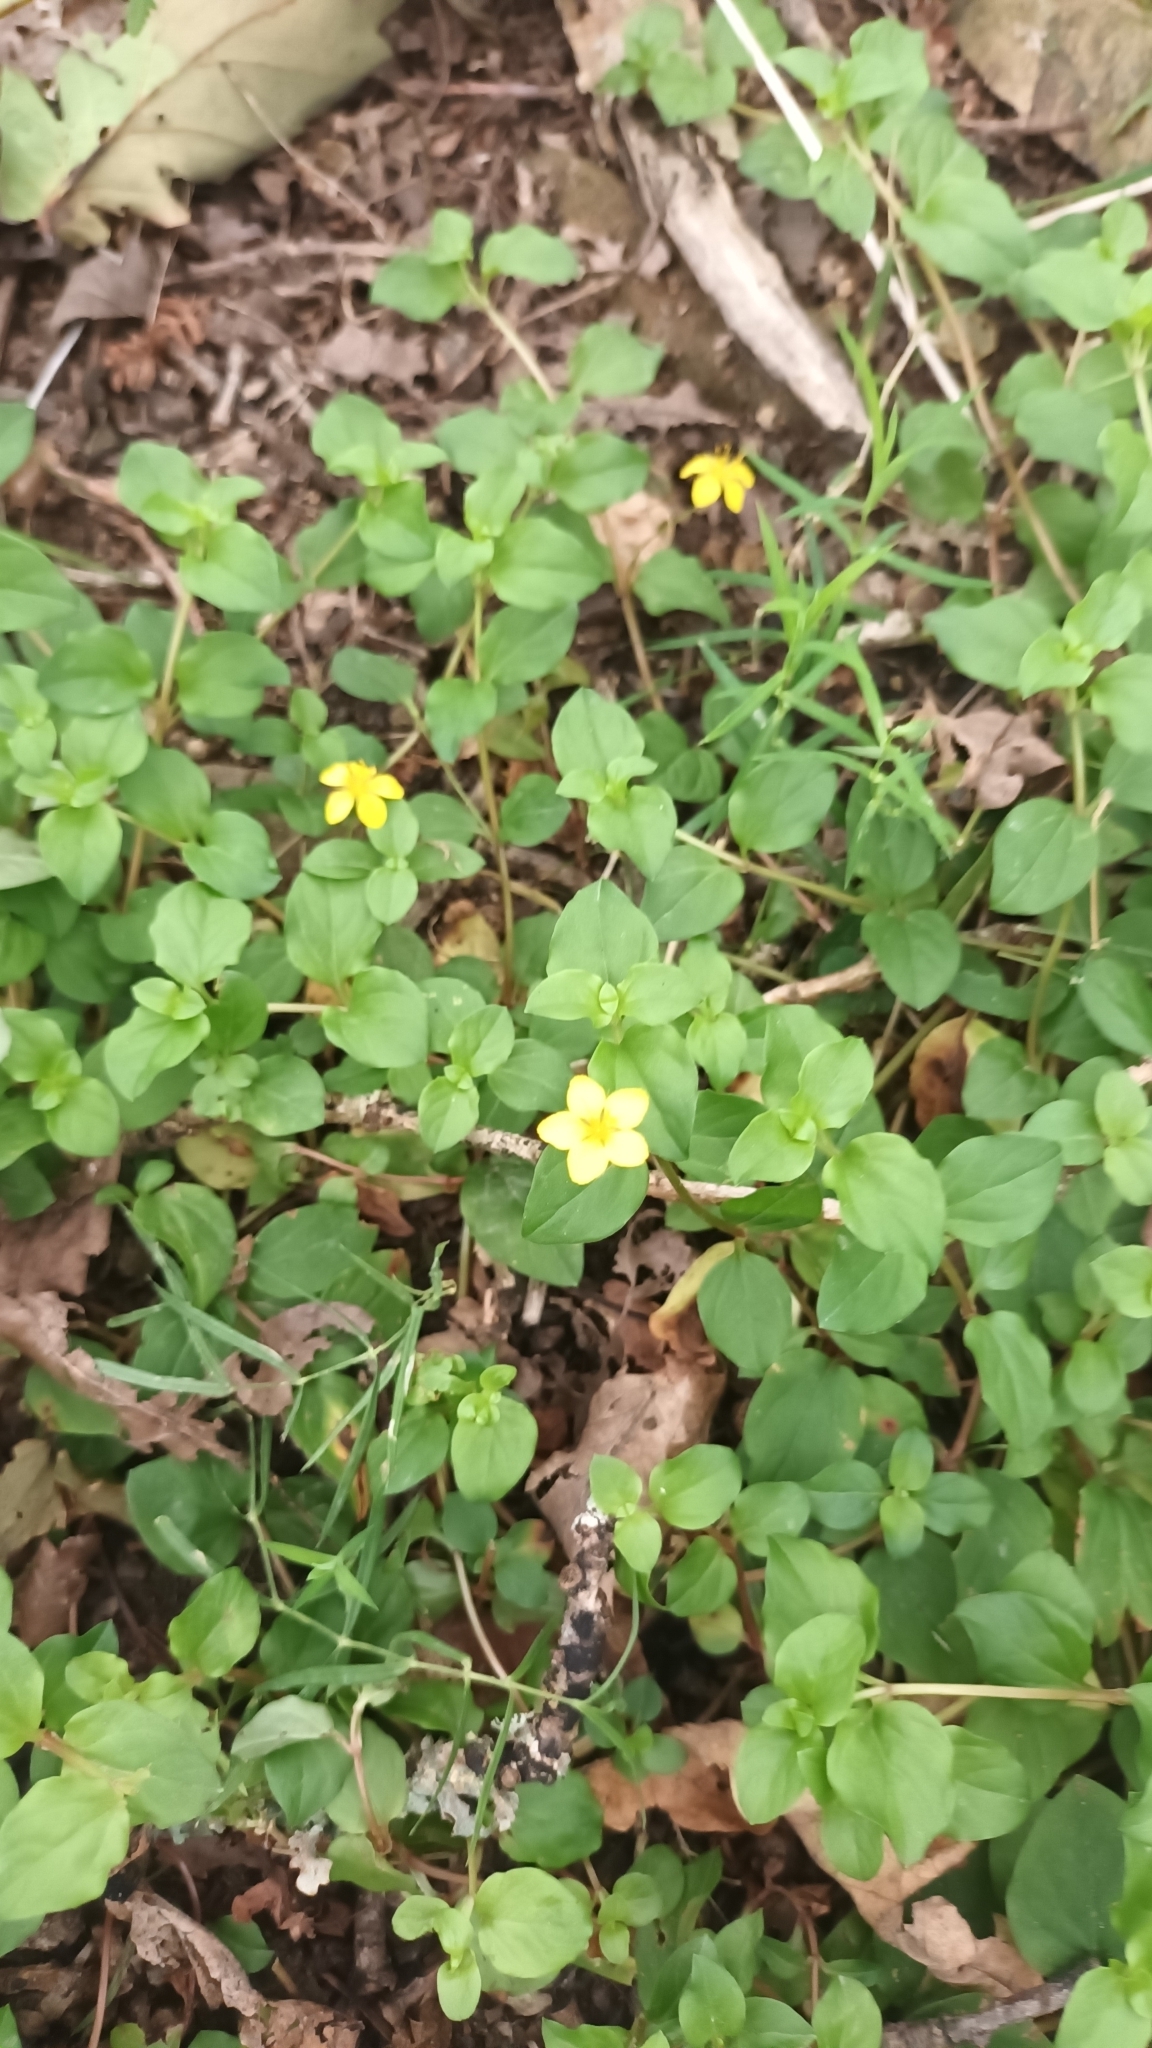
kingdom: Plantae
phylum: Tracheophyta
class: Magnoliopsida
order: Ericales
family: Primulaceae
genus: Lysimachia
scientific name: Lysimachia nemorum
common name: Yellow pimpernel
